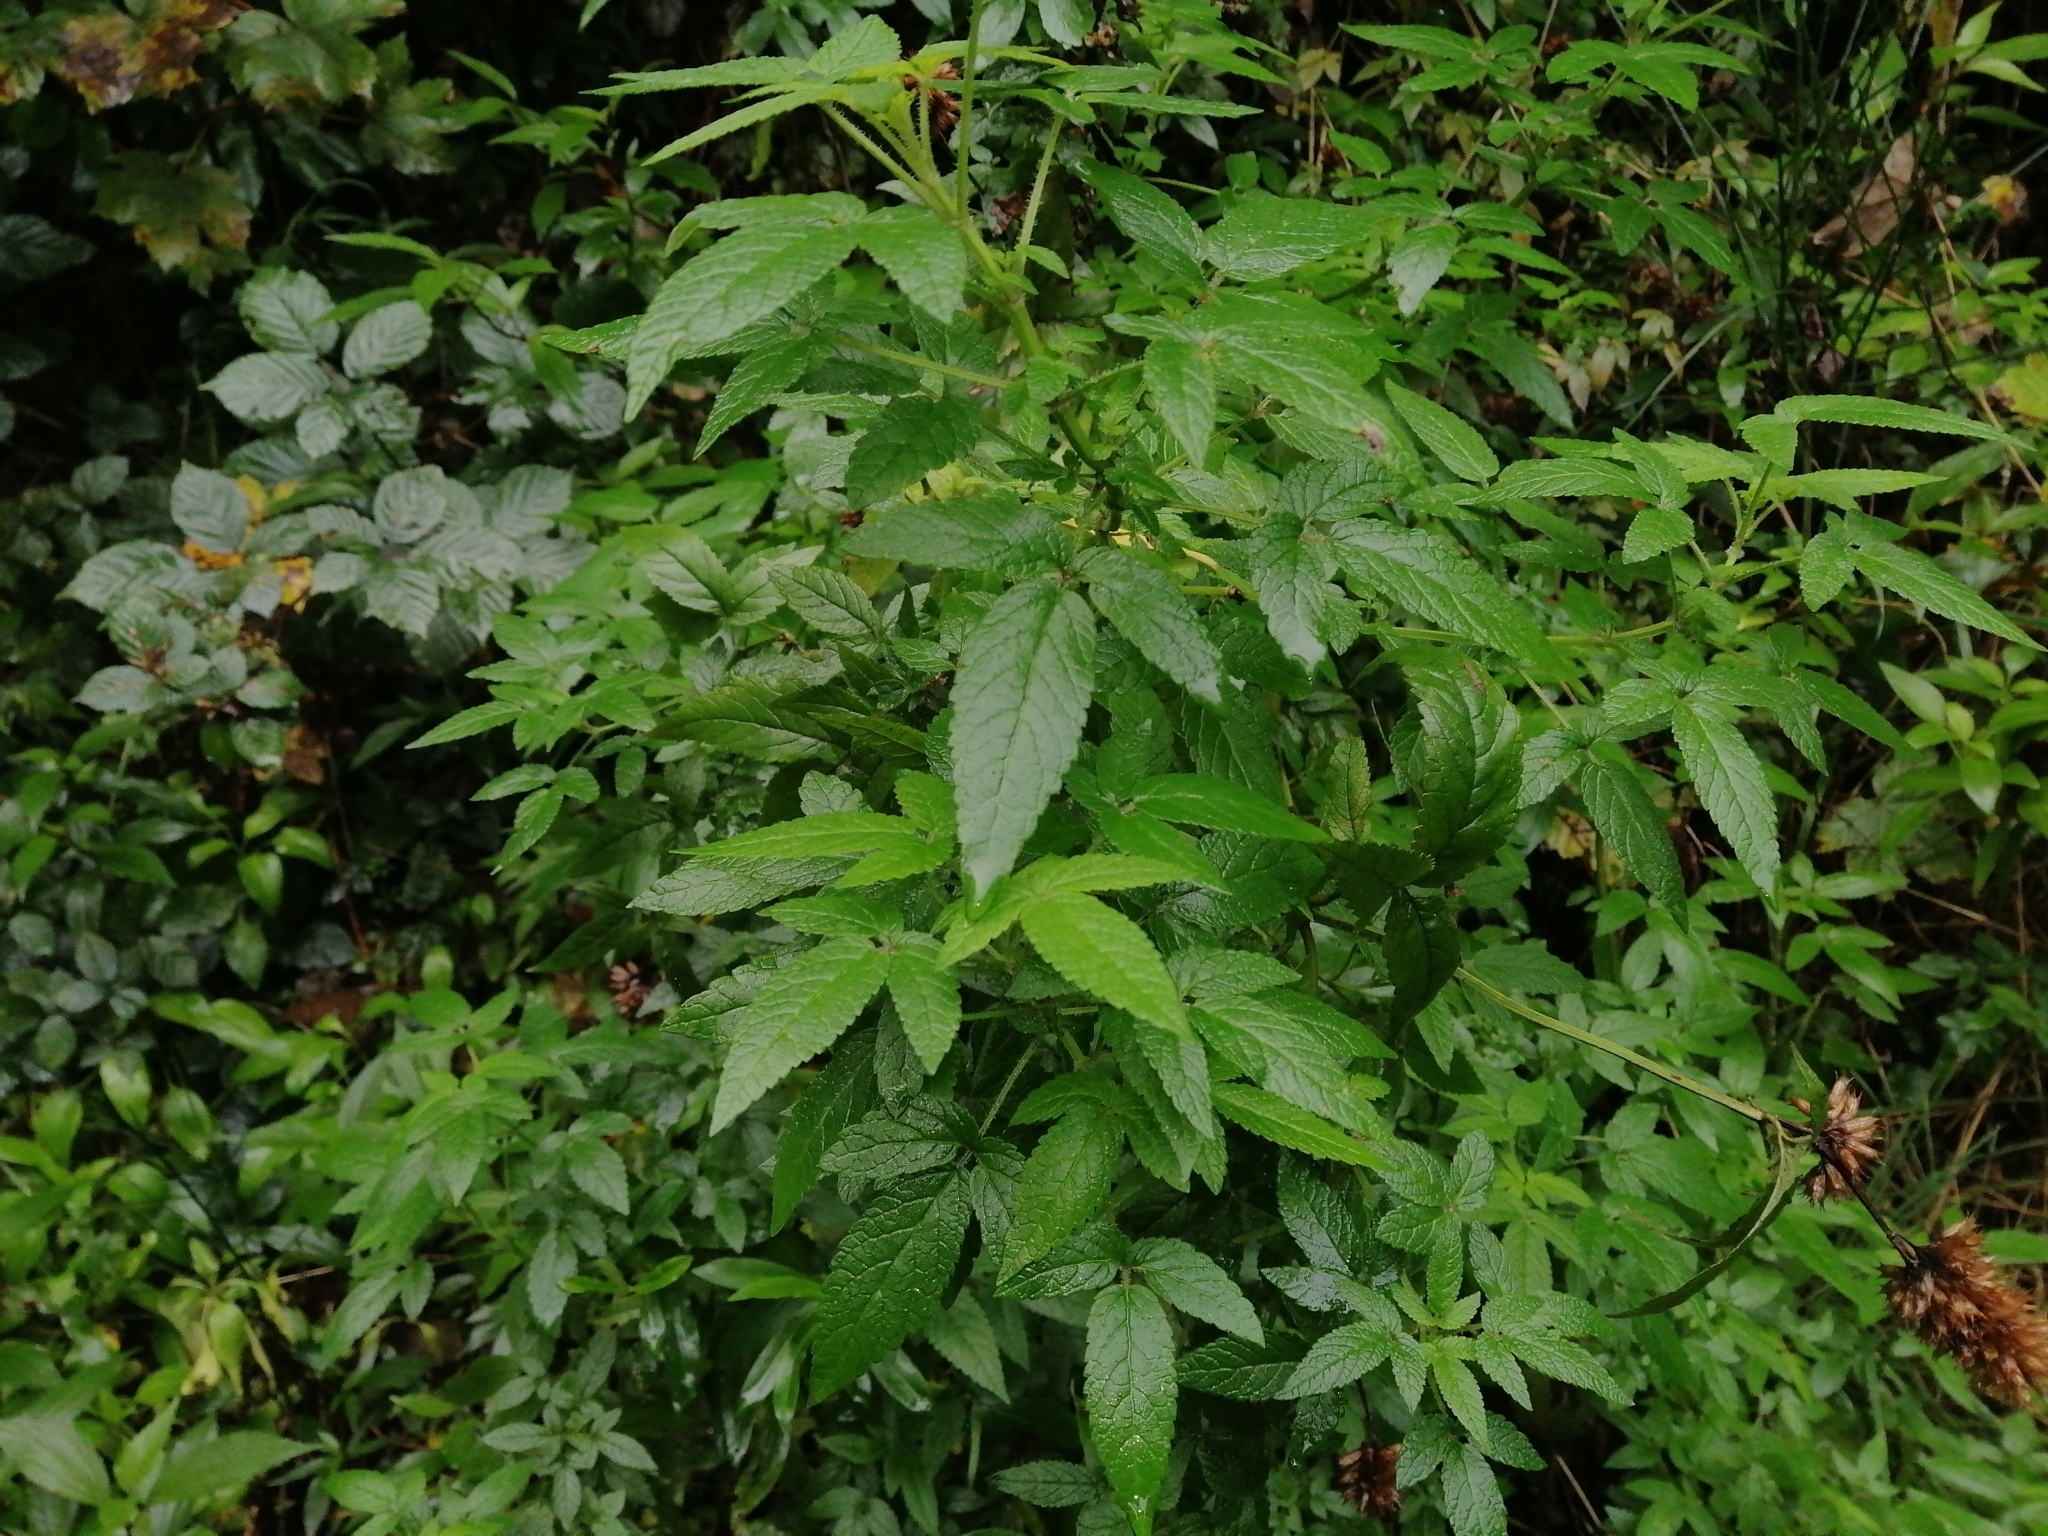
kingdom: Plantae
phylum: Tracheophyta
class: Magnoliopsida
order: Lamiales
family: Lamiaceae
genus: Cedronella
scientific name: Cedronella canariensis
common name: Canary islands balm
